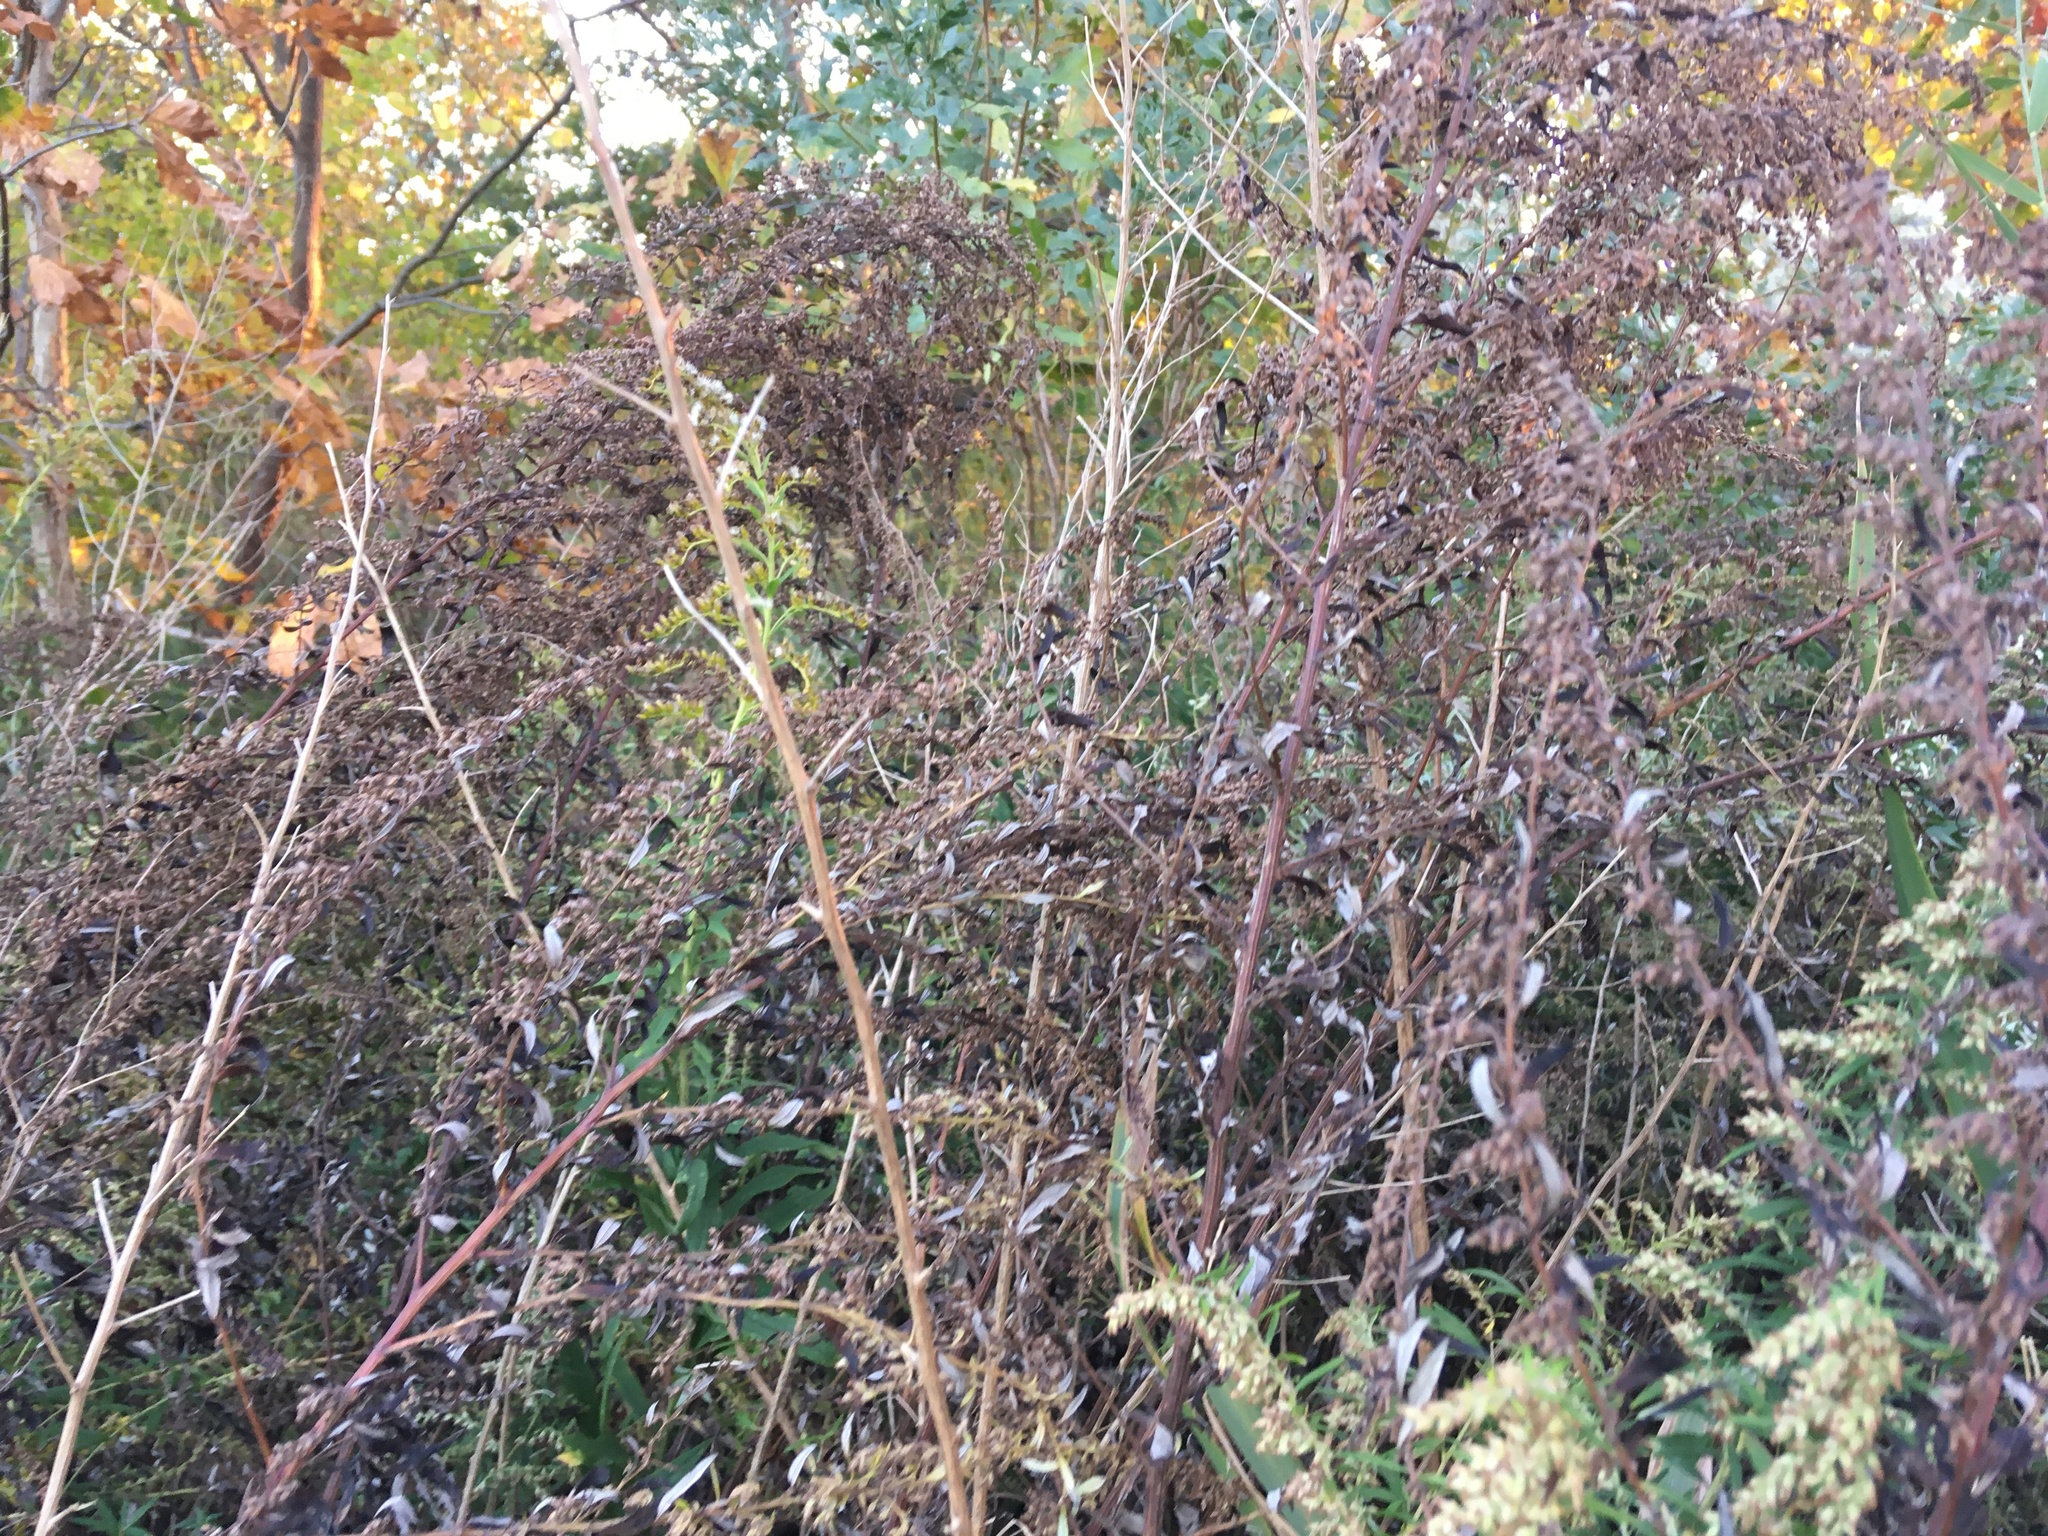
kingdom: Plantae
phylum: Tracheophyta
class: Magnoliopsida
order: Asterales
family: Asteraceae
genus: Artemisia
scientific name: Artemisia vulgaris
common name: Mugwort
